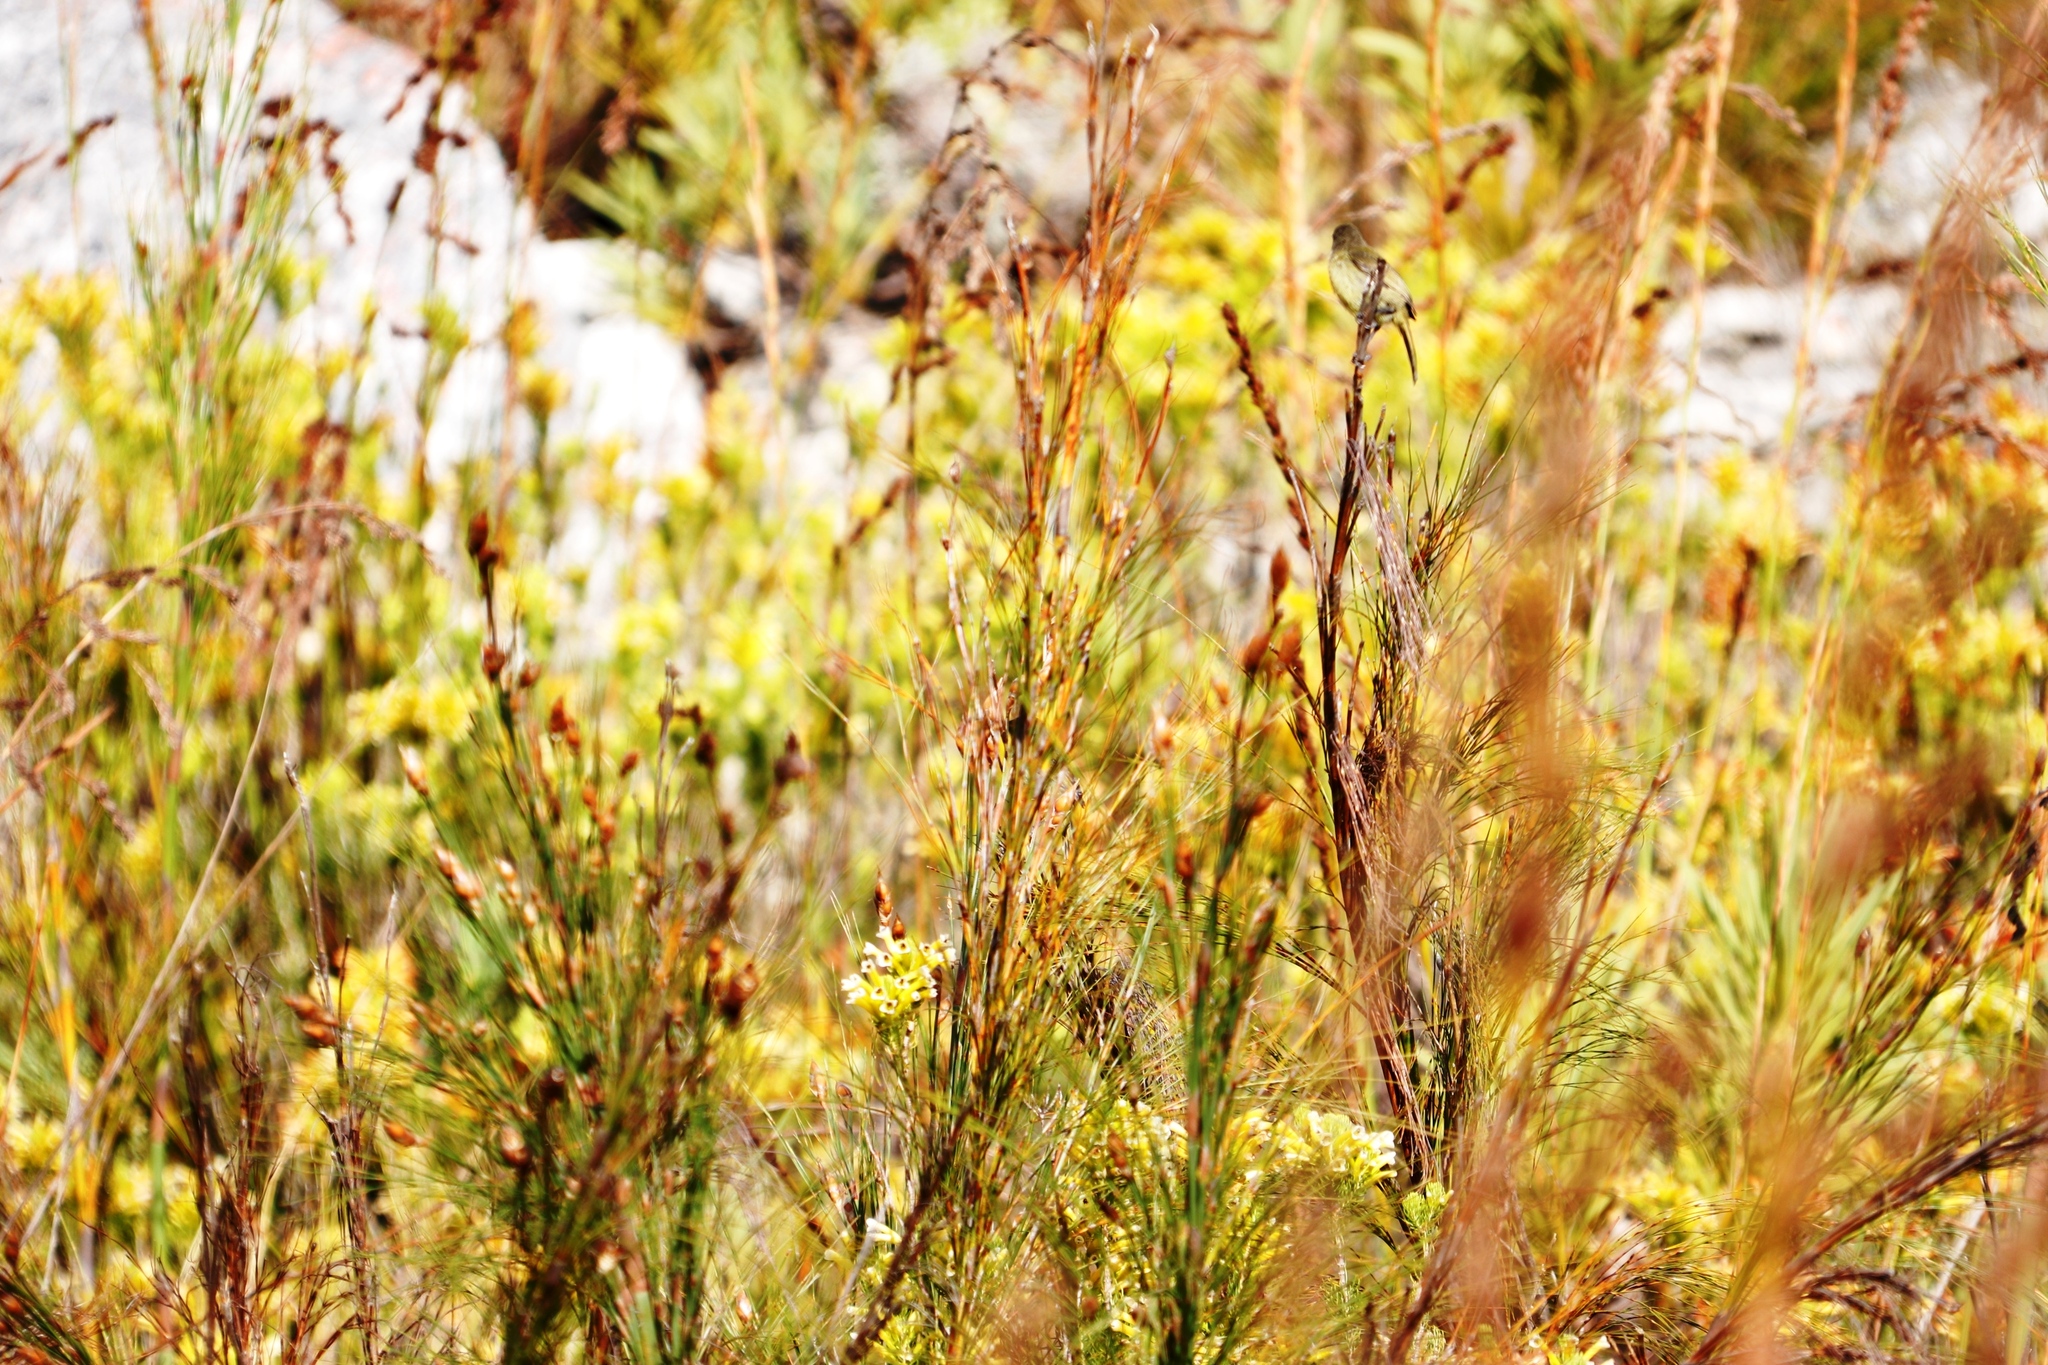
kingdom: Animalia
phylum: Chordata
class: Aves
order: Passeriformes
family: Nectariniidae
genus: Anthobaphes
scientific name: Anthobaphes violacea
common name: Orange-breasted sunbird
